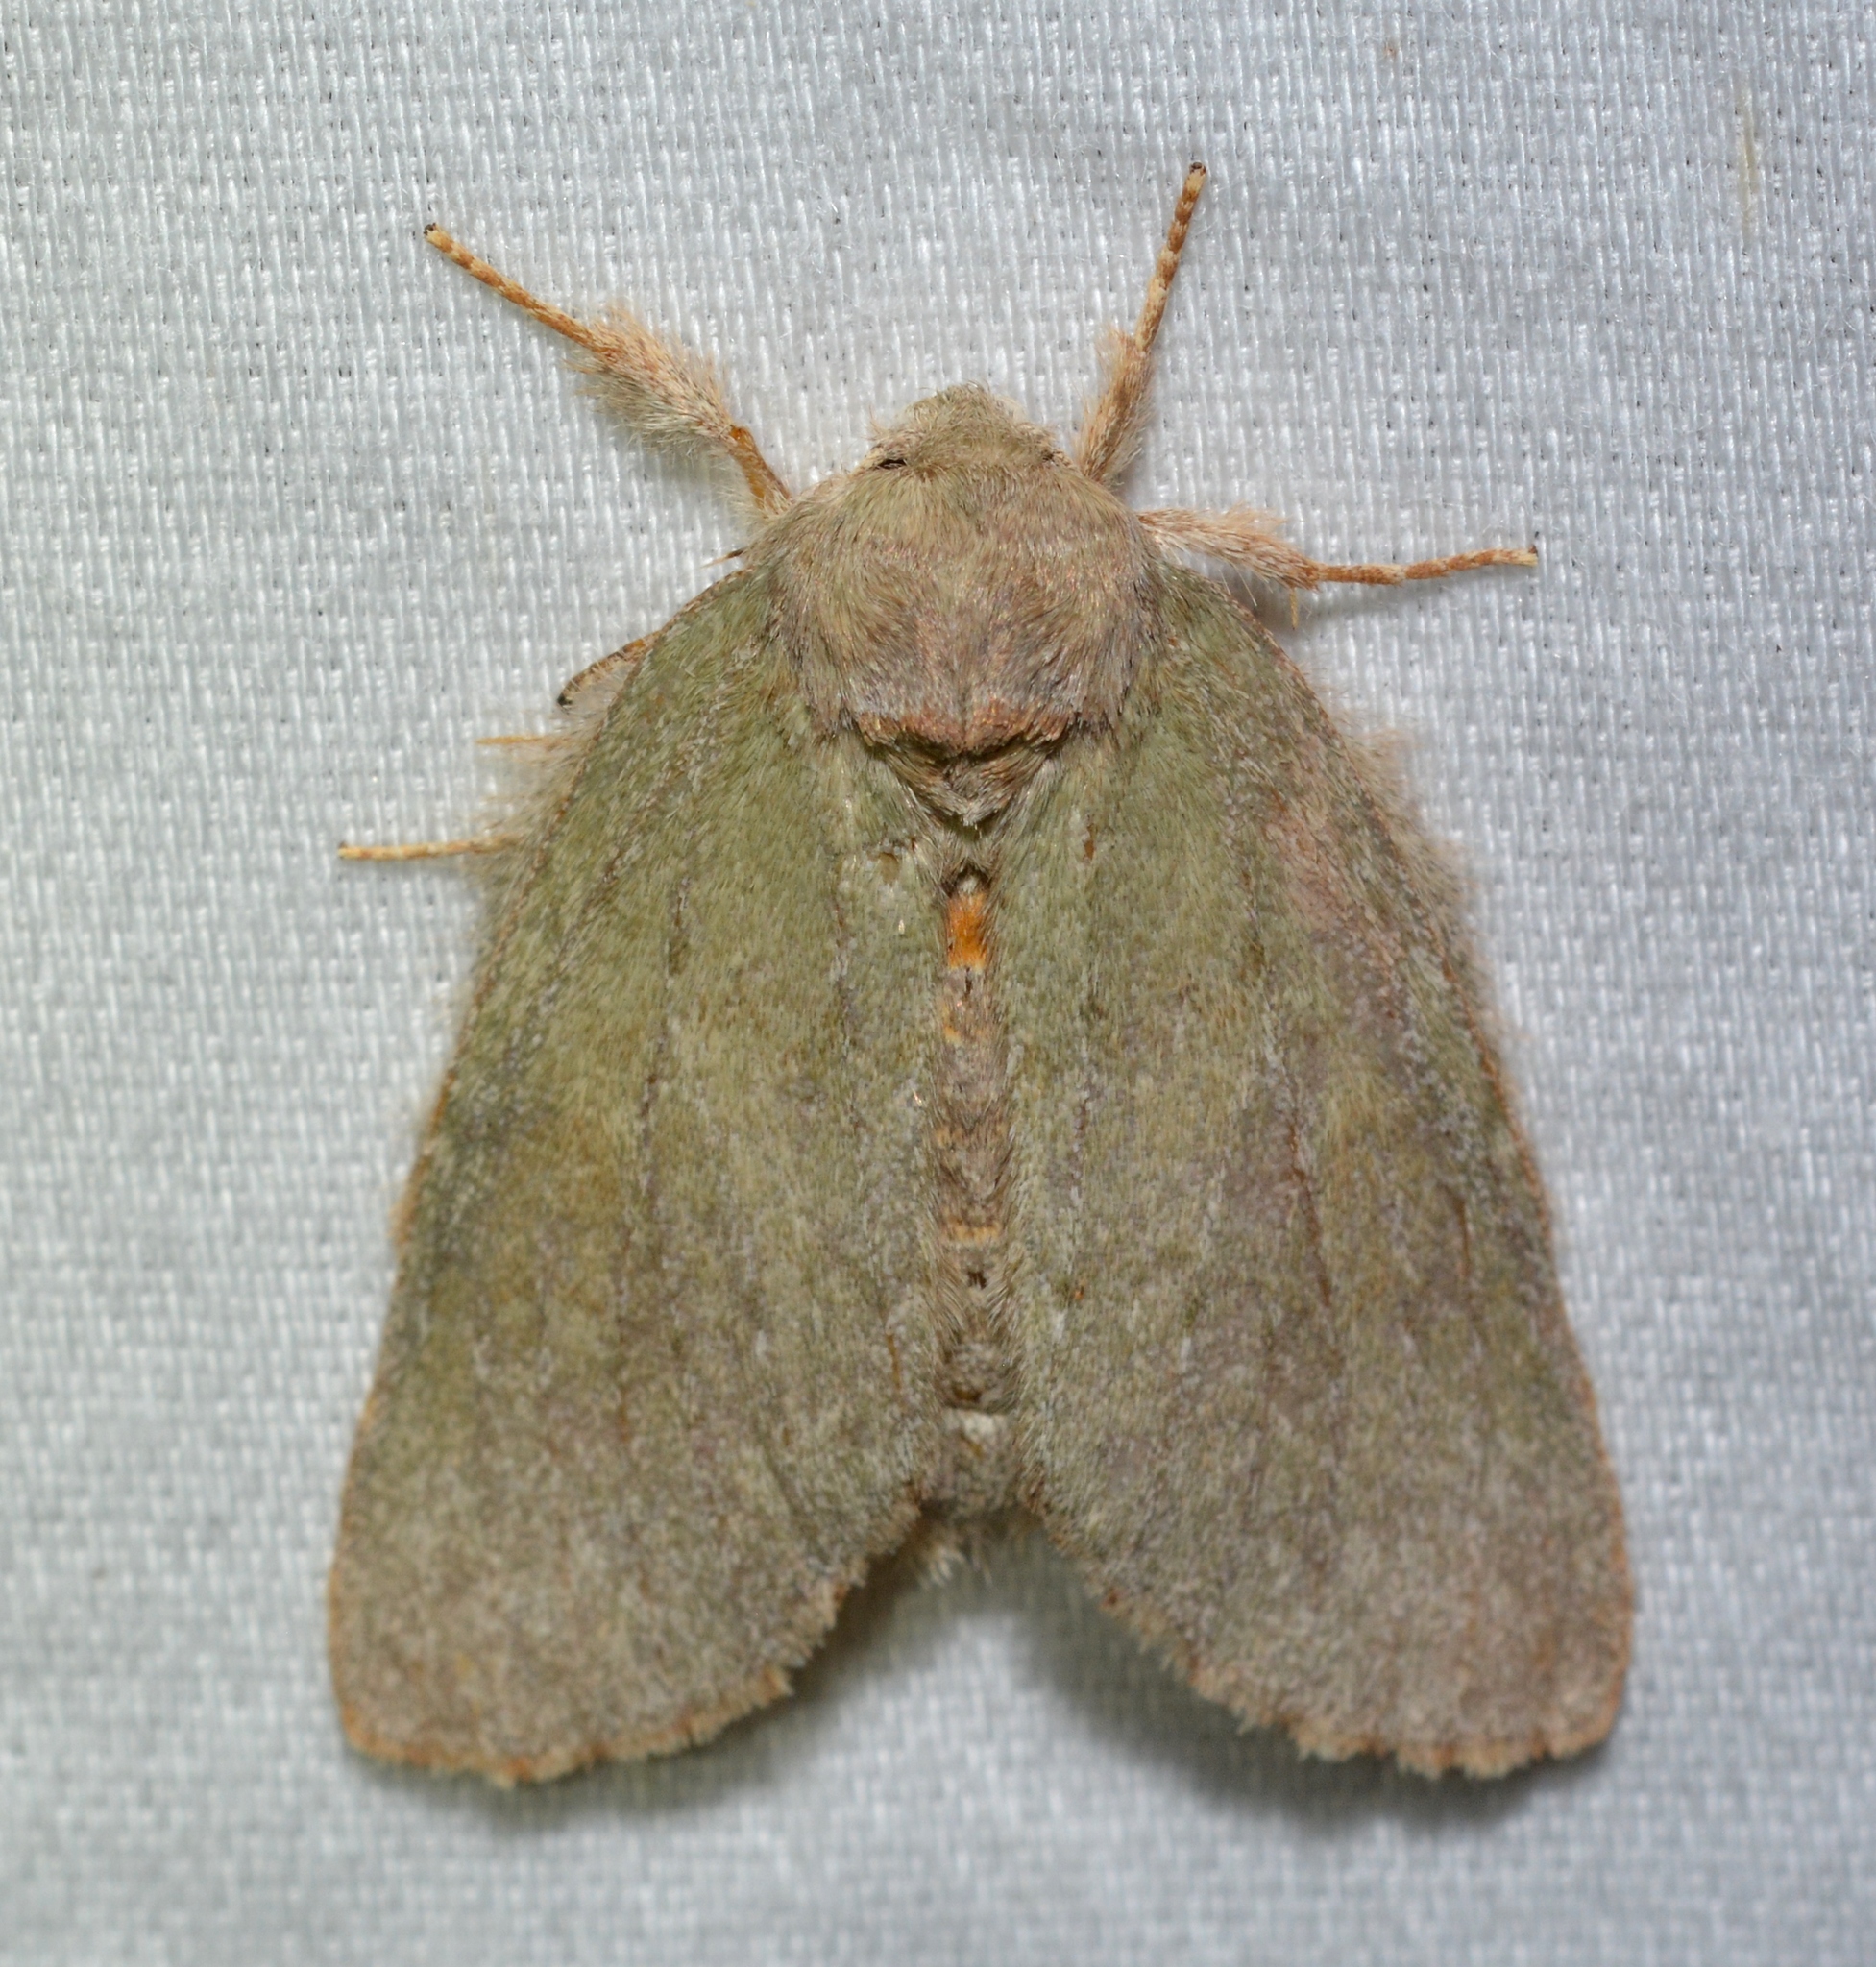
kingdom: Animalia
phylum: Arthropoda
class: Insecta
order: Lepidoptera
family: Notodontidae
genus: Misogada
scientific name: Misogada unicolor
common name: Drab prominent
